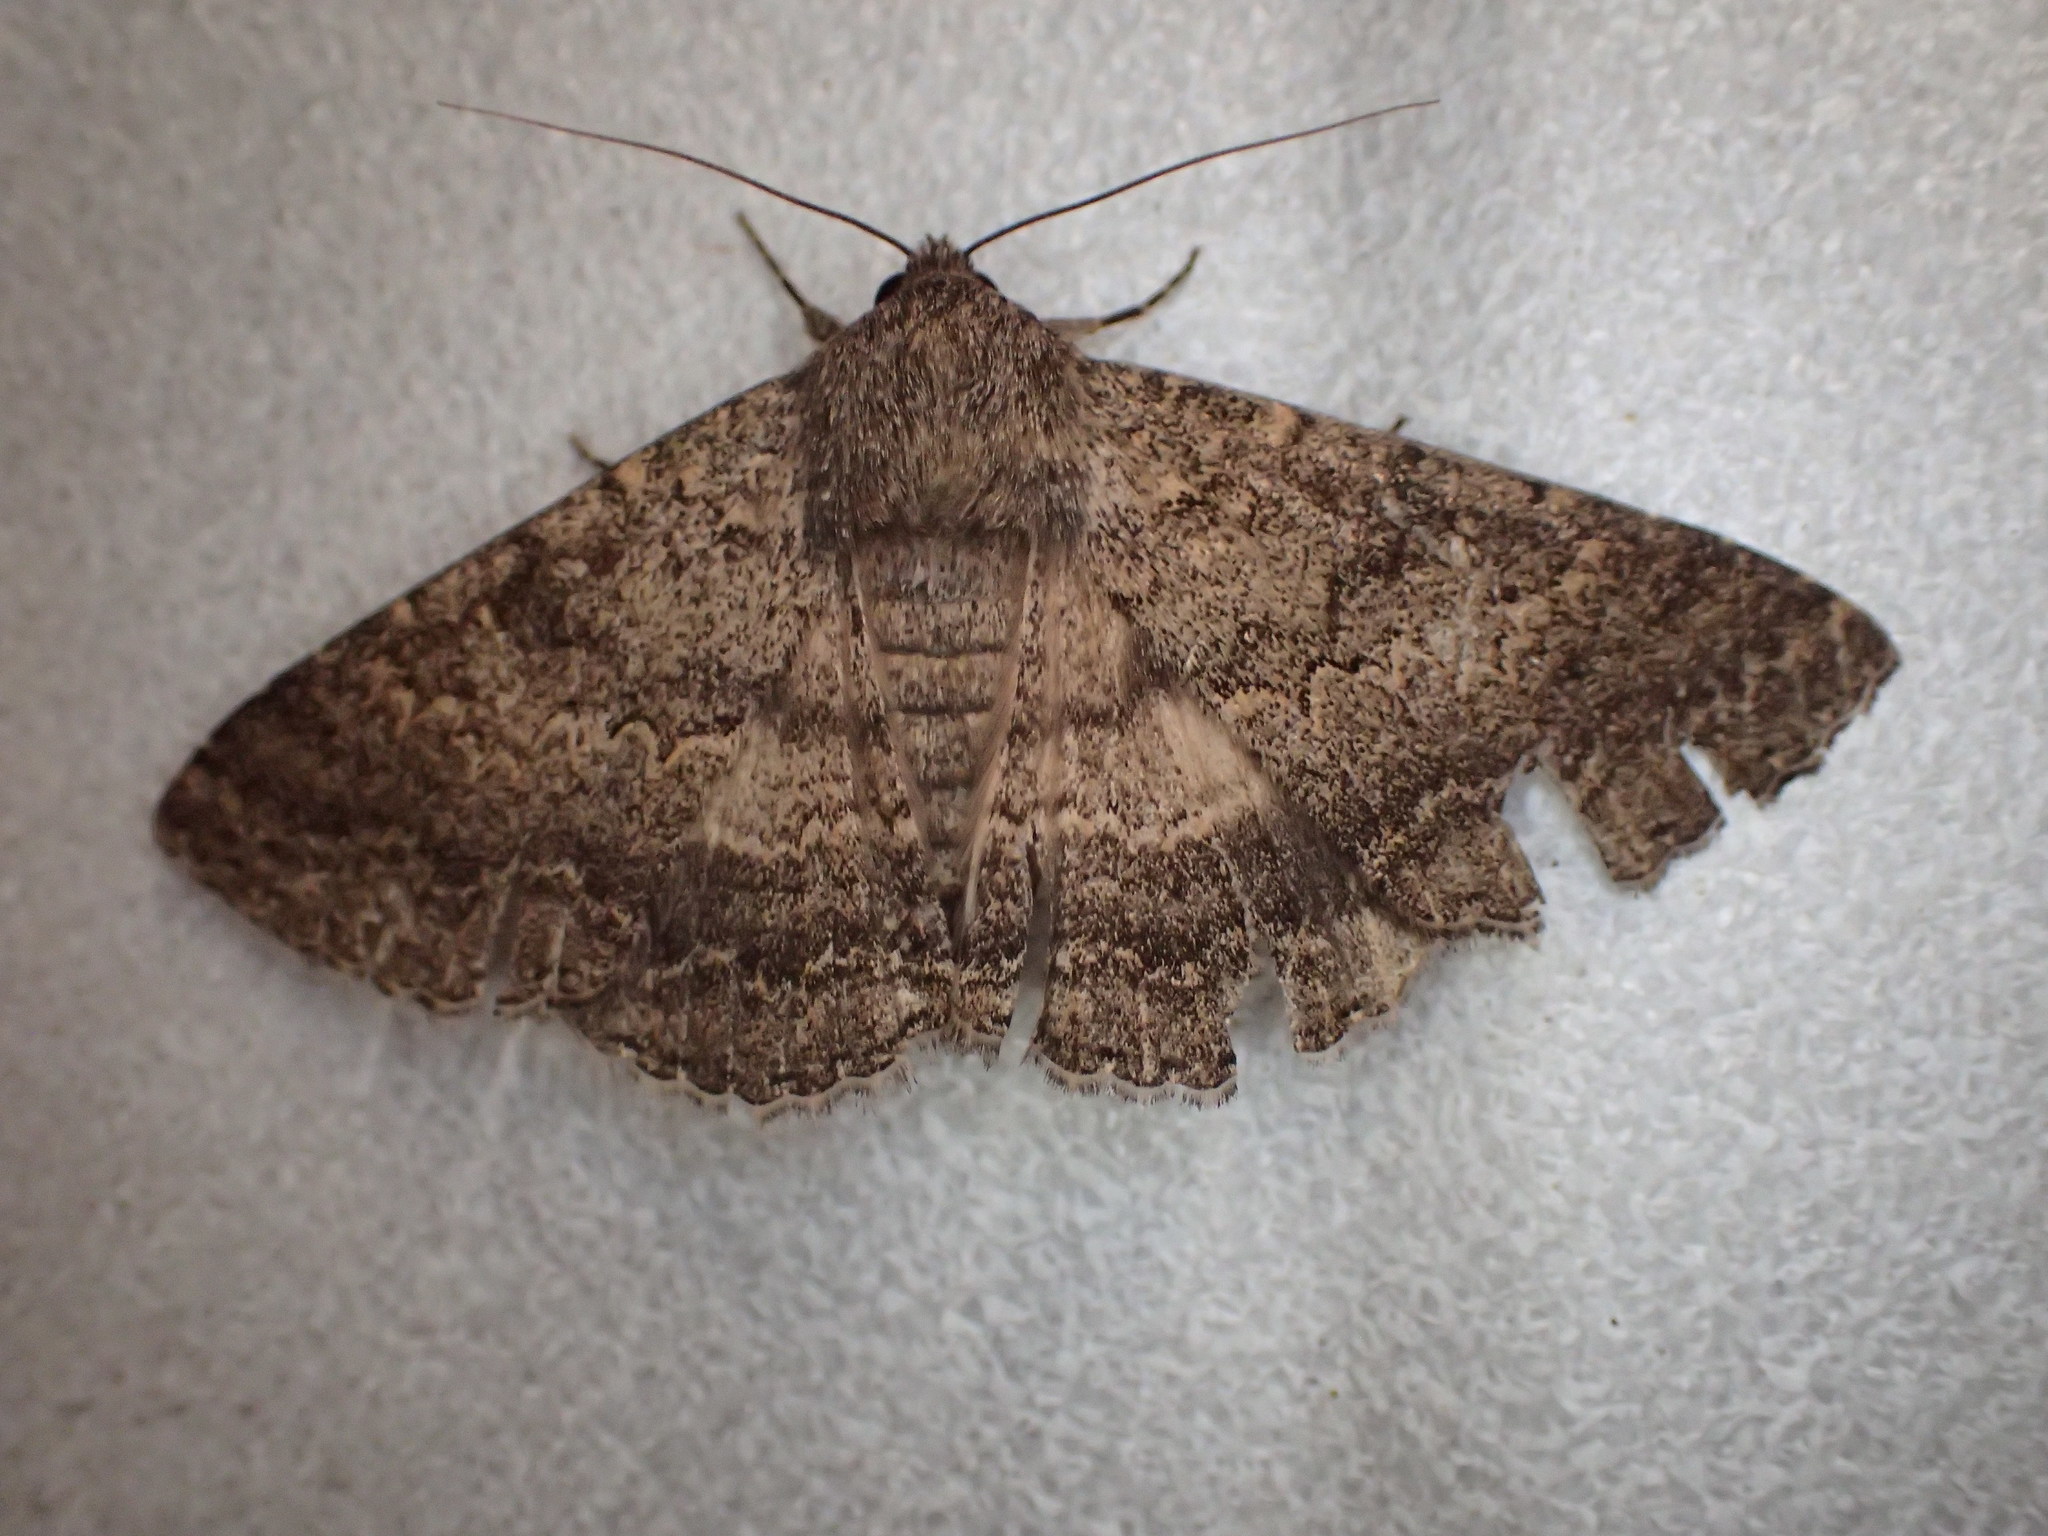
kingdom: Animalia
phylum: Arthropoda
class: Insecta
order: Lepidoptera
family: Erebidae
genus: Eudesmeola
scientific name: Eudesmeola lawsoni
